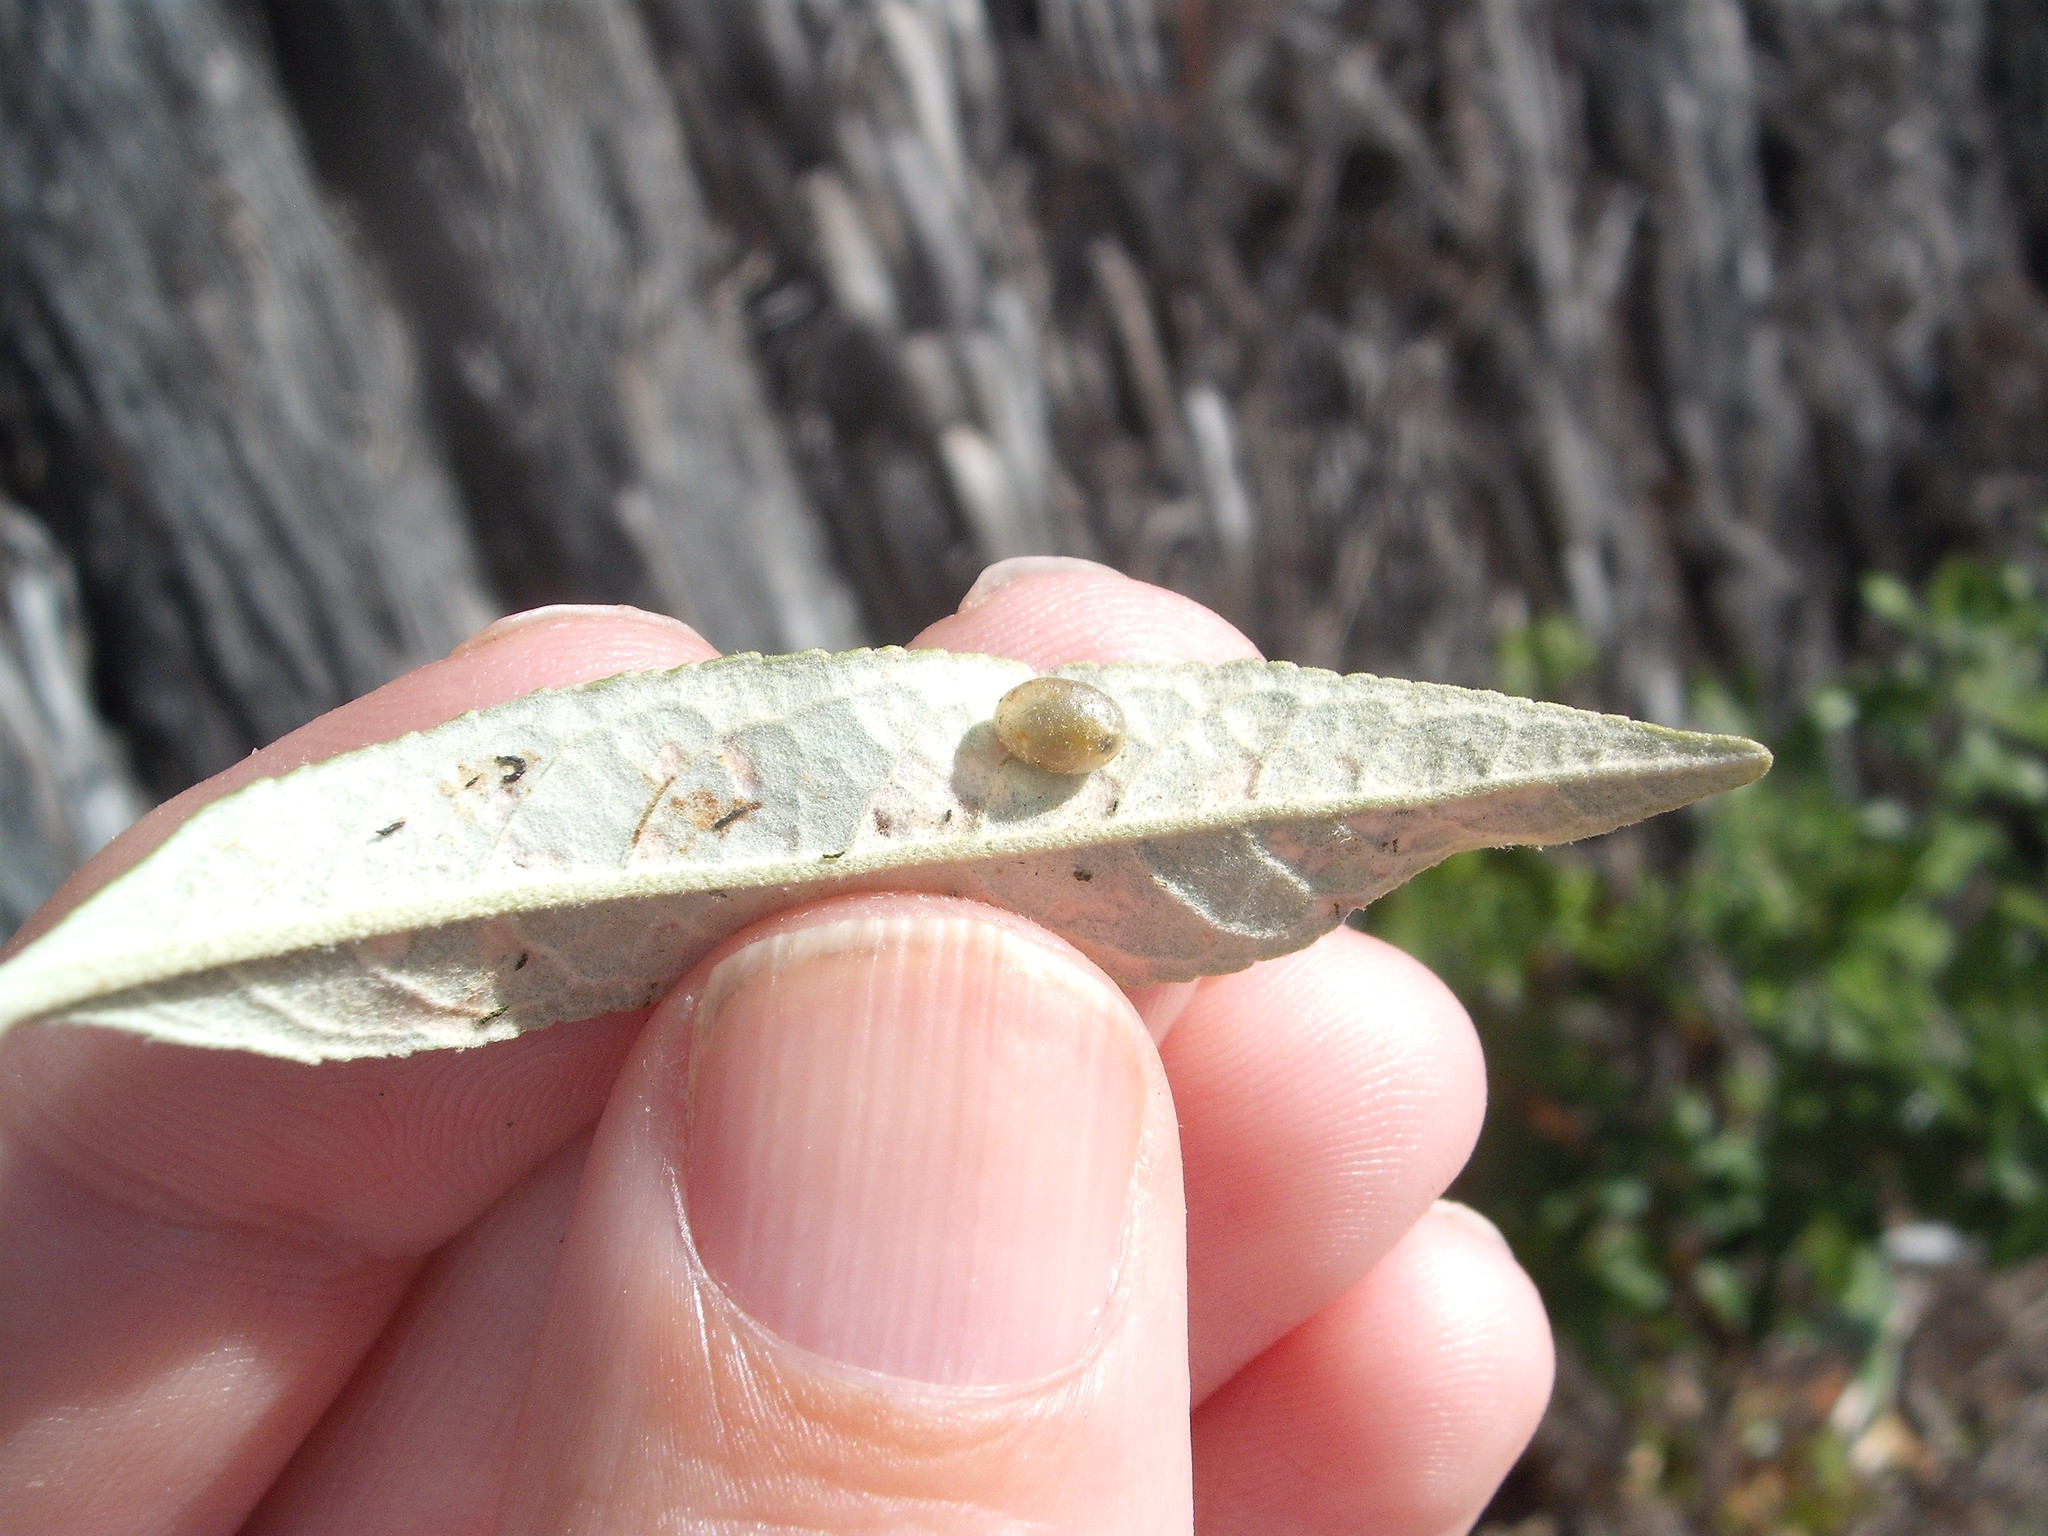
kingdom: Animalia
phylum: Arthropoda
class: Insecta
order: Coleoptera
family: Curculionidae
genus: Cleopus
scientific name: Cleopus japonicus
